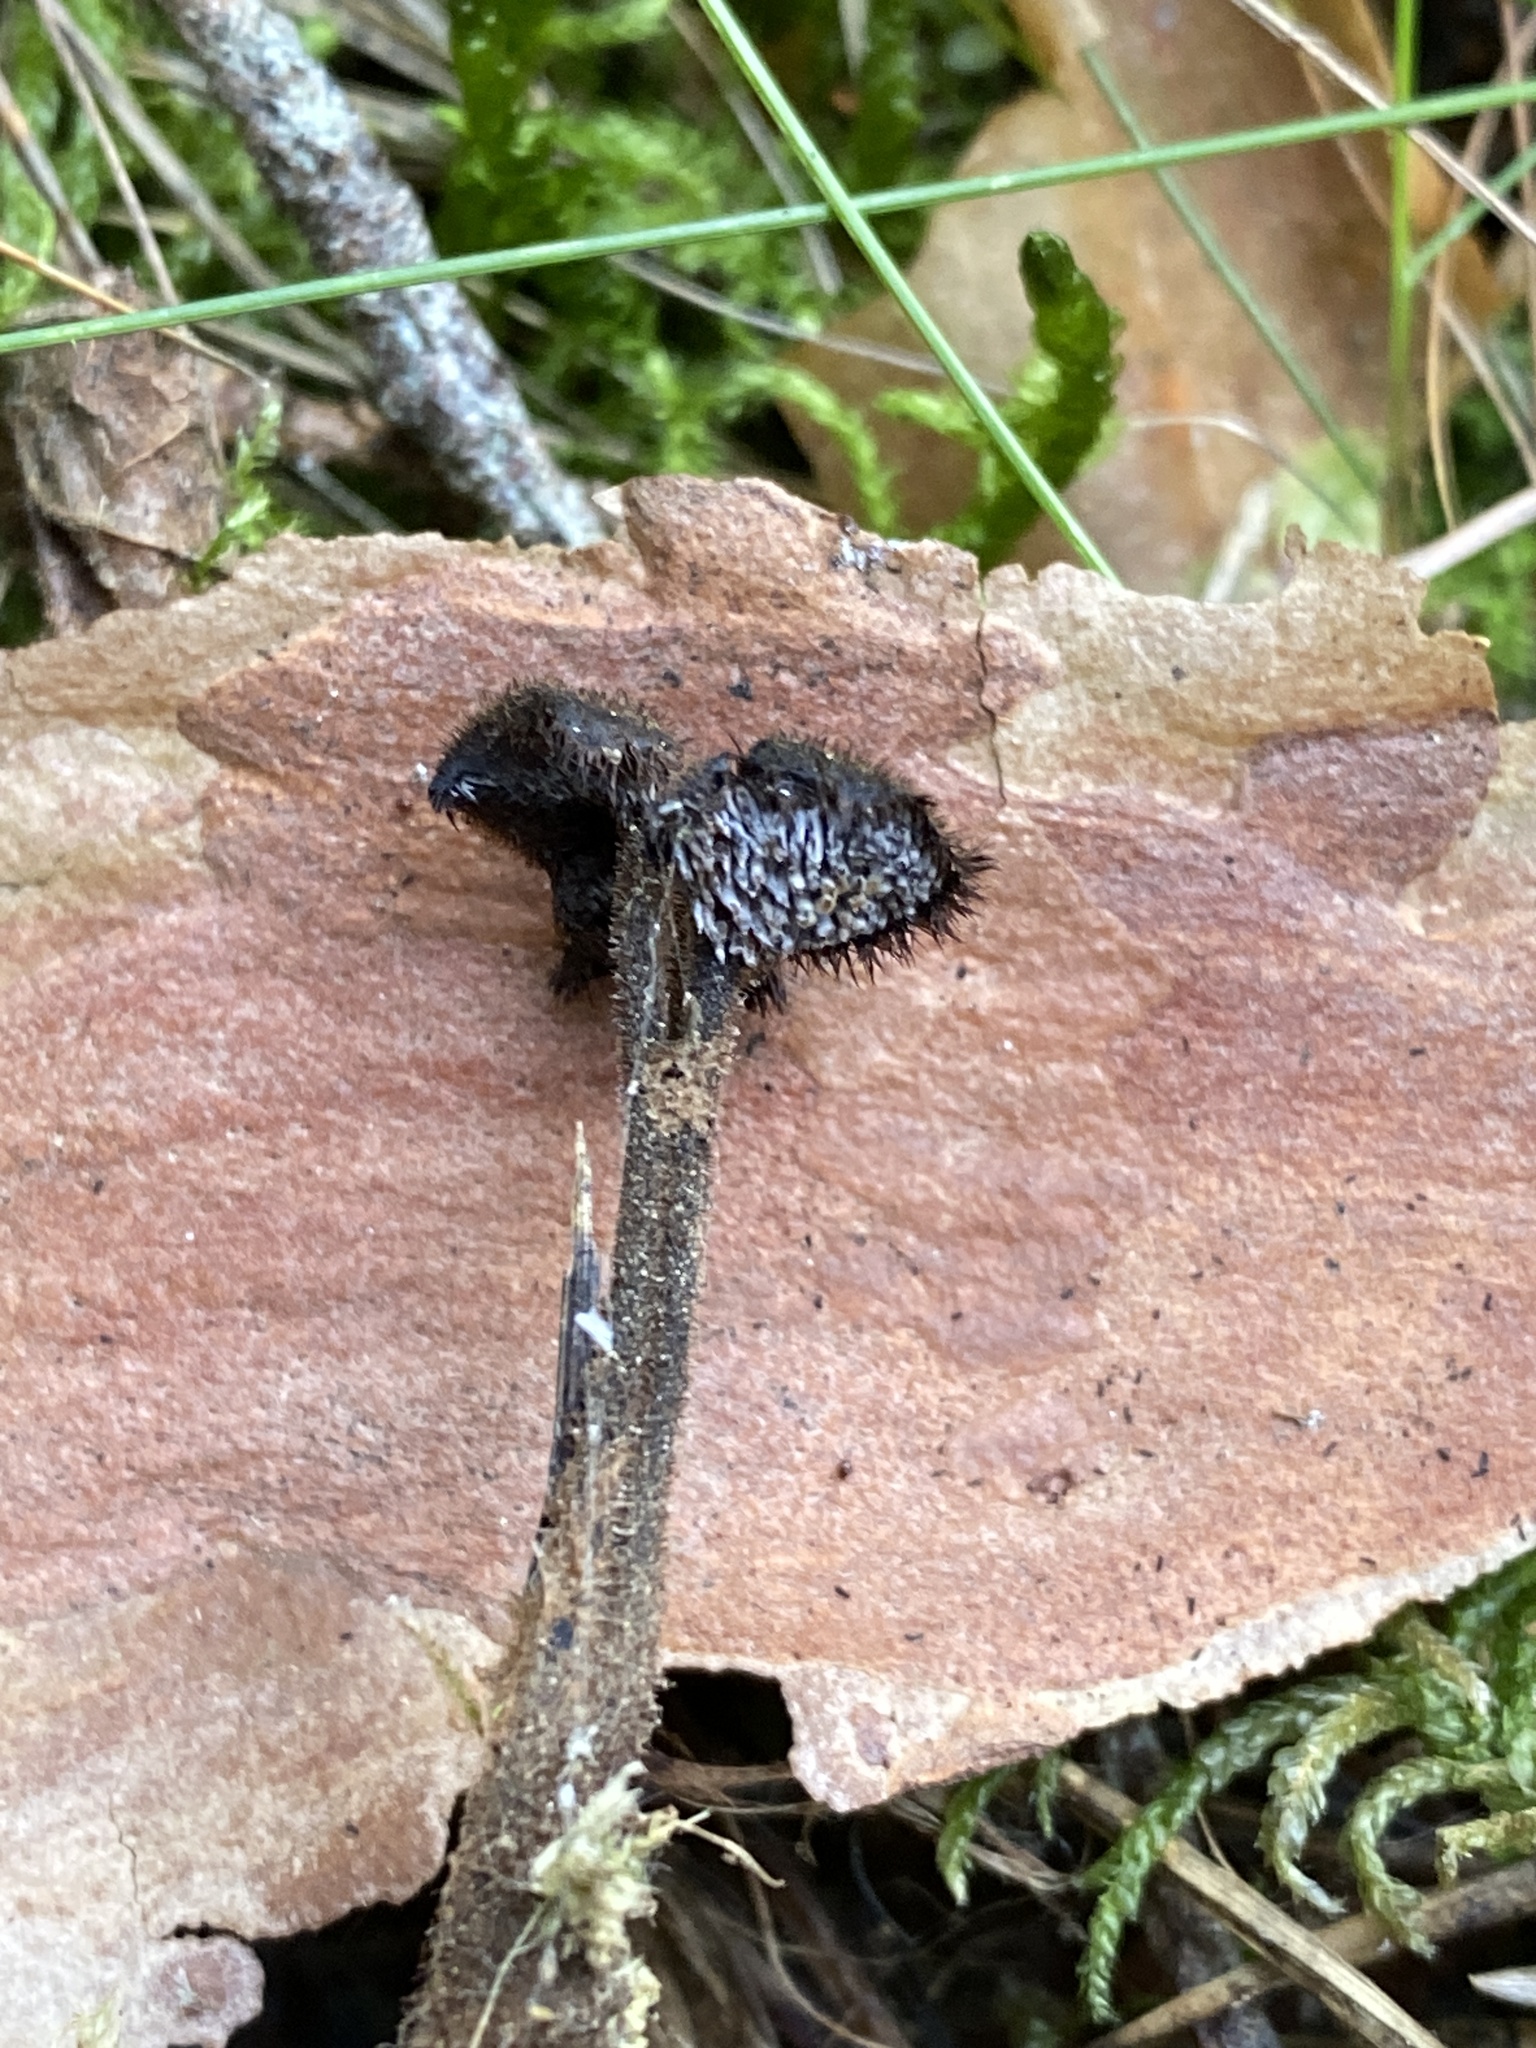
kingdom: Fungi
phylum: Basidiomycota
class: Agaricomycetes
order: Russulales
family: Auriscalpiaceae
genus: Auriscalpium
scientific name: Auriscalpium vulgare
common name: Earpick fungus
